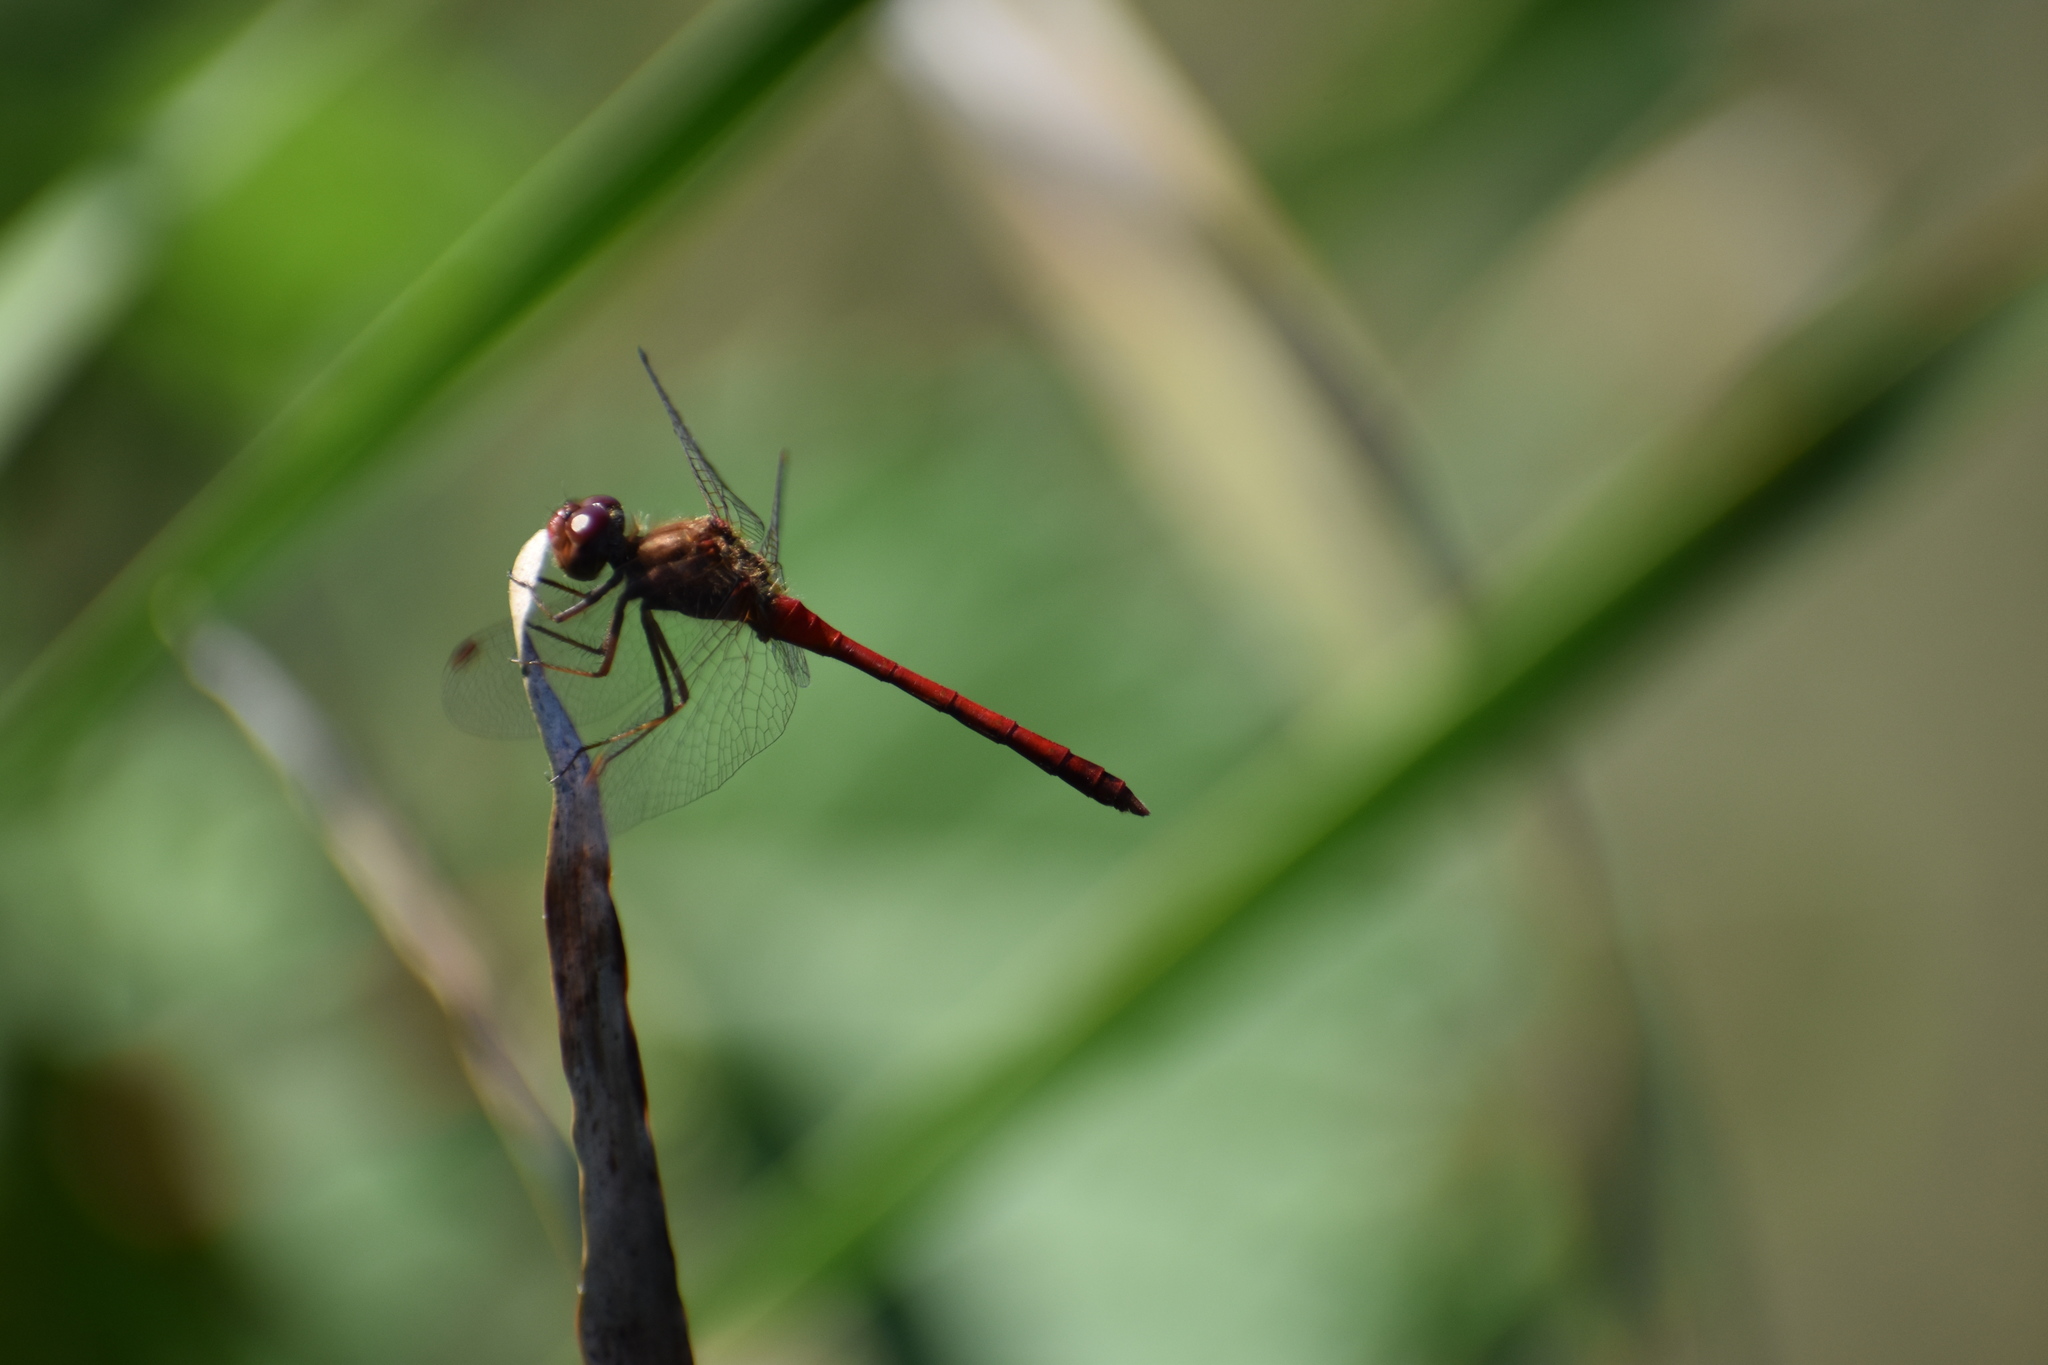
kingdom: Animalia
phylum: Arthropoda
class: Insecta
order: Odonata
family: Libellulidae
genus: Sympetrum
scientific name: Sympetrum vicinum
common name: Autumn meadowhawk
